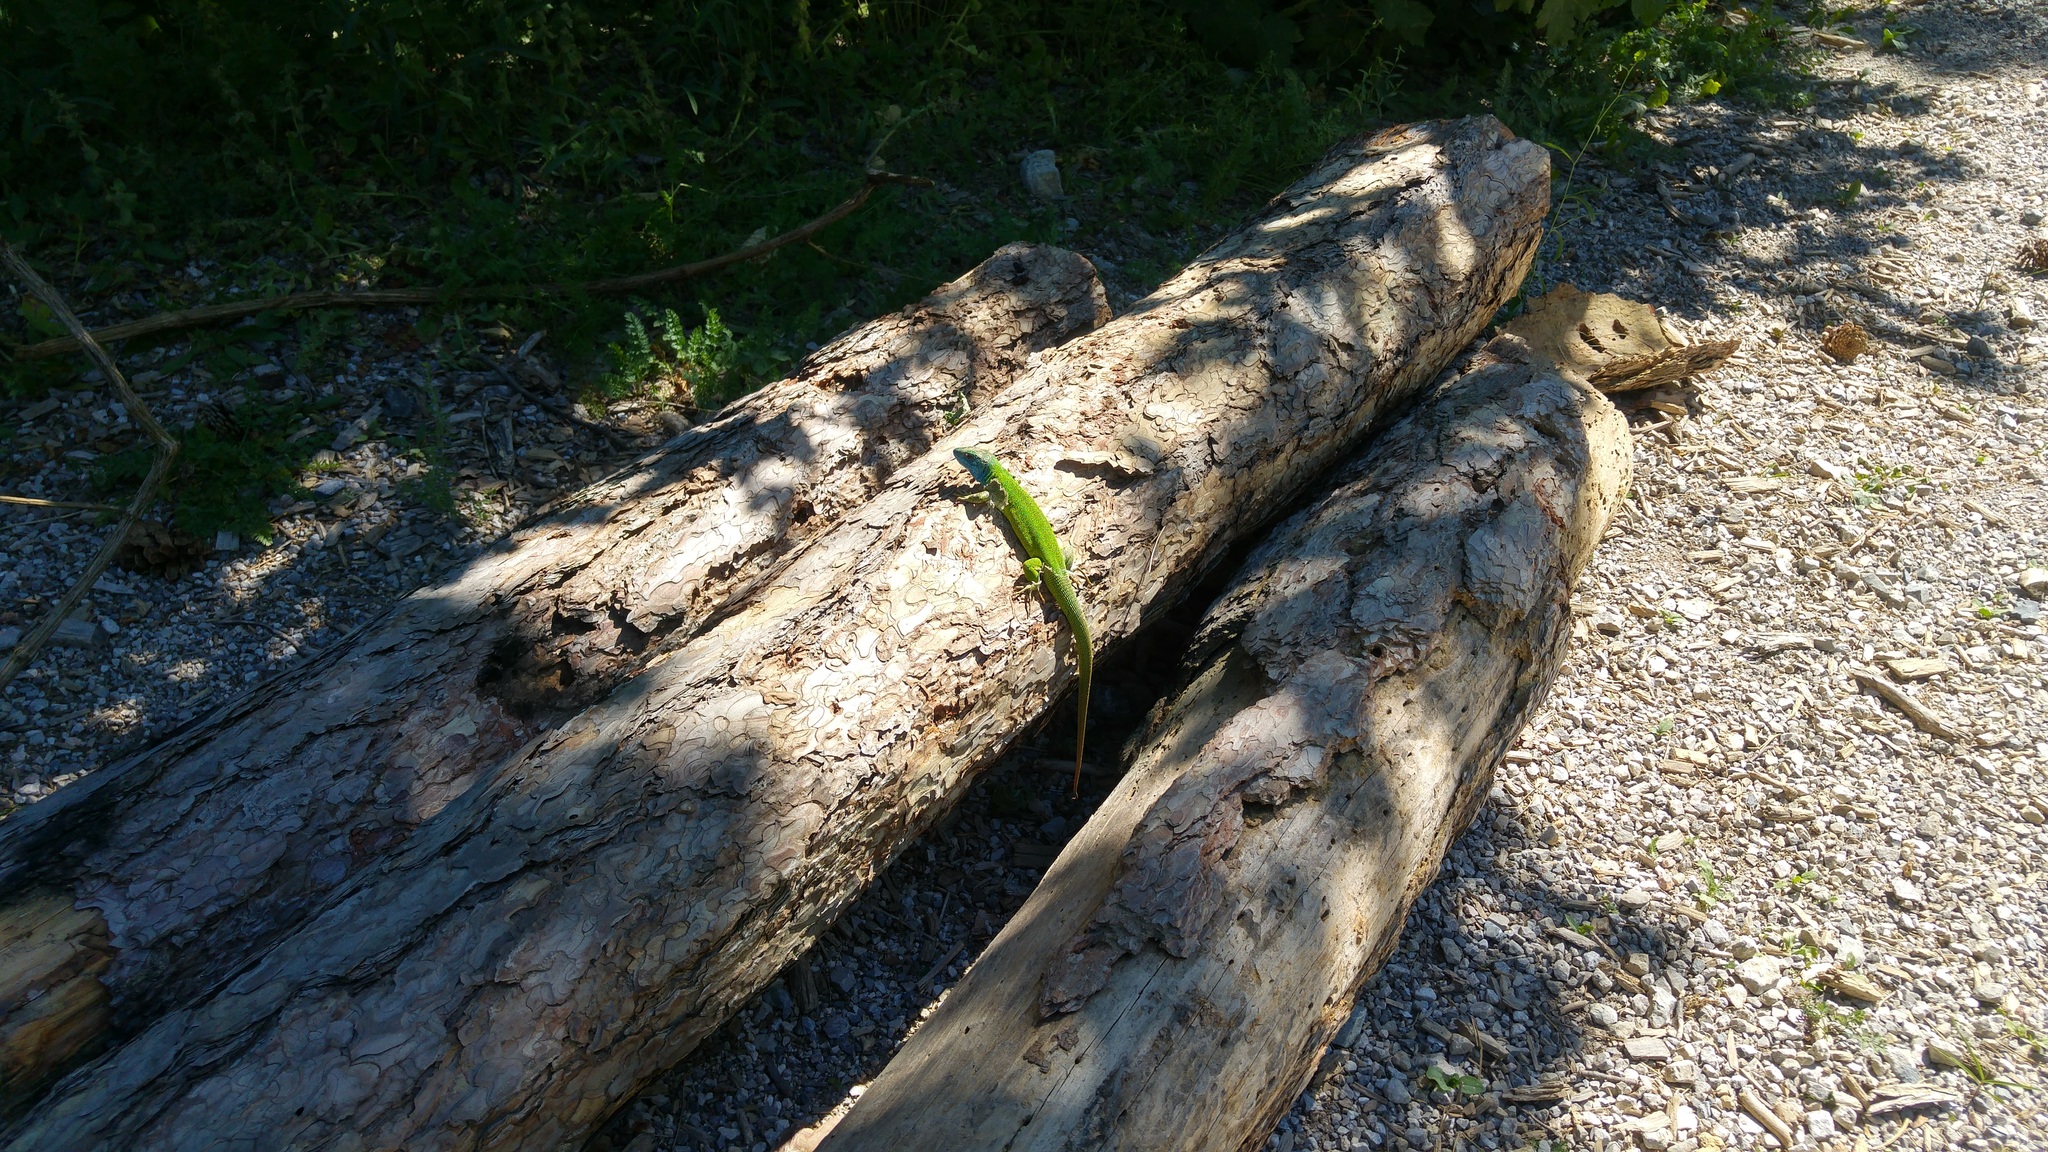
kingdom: Animalia
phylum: Chordata
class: Squamata
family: Lacertidae
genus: Lacerta
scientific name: Lacerta viridis
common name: European green lizard
